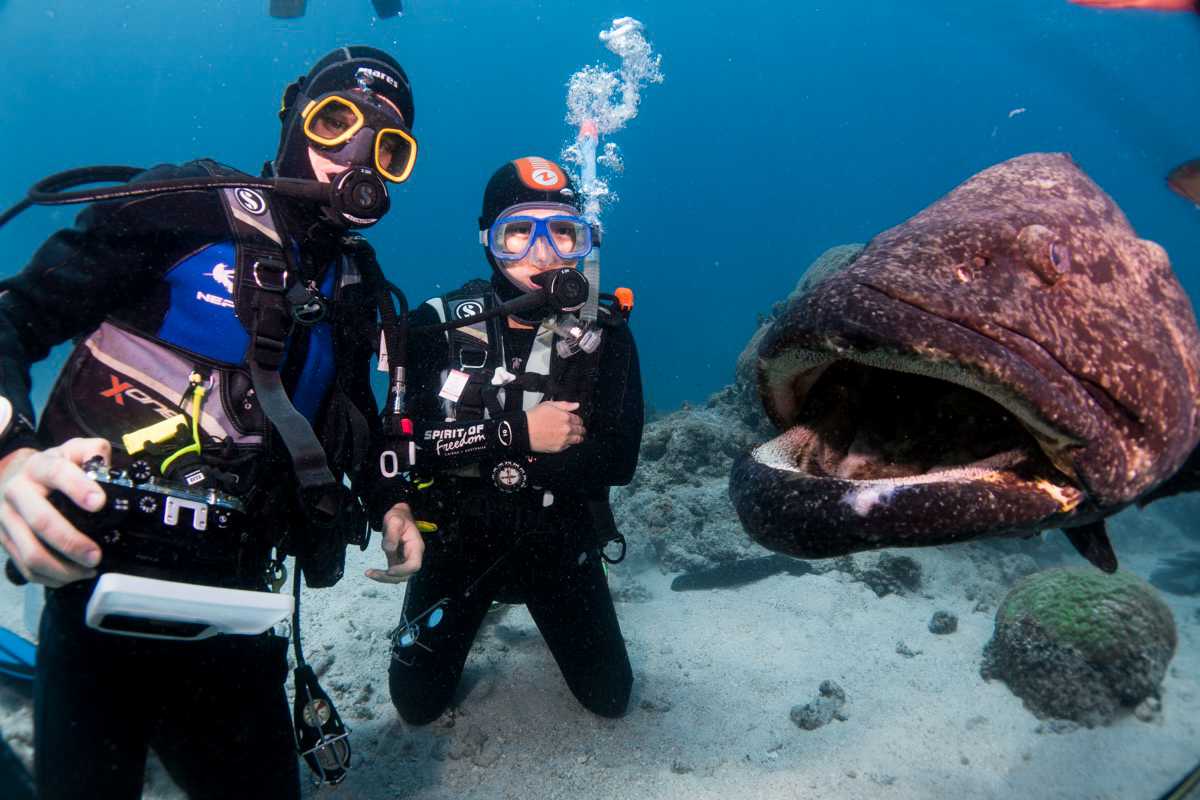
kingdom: Animalia
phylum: Chordata
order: Perciformes
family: Serranidae
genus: Epinephelus
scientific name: Epinephelus tukula
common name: Potato cod
